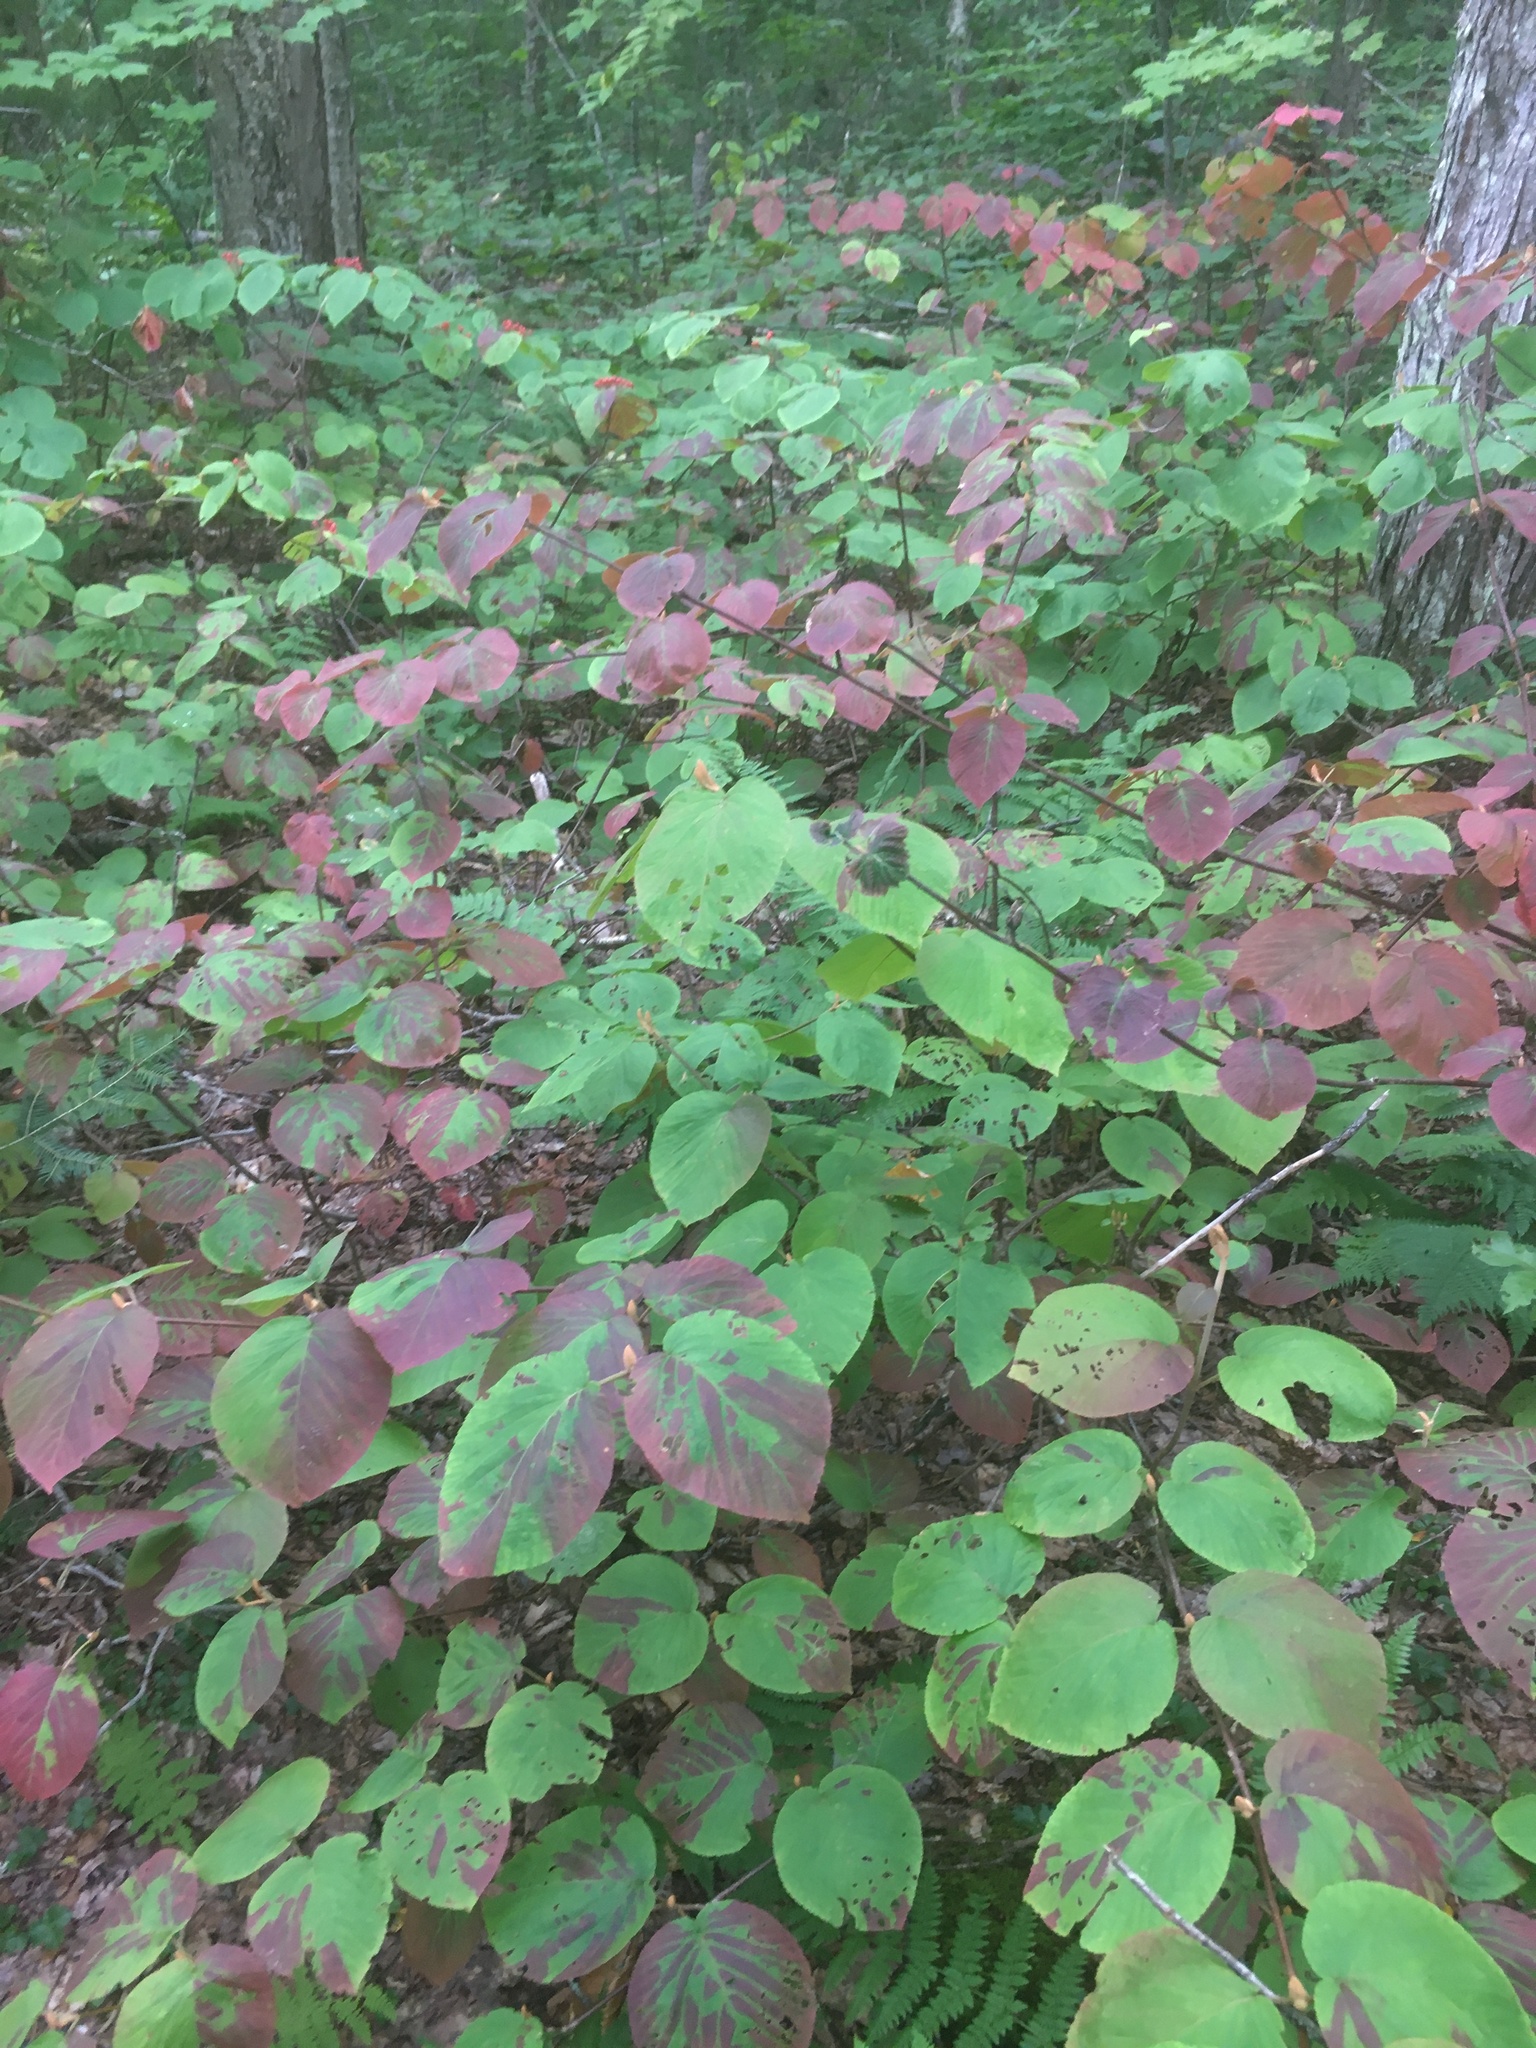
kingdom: Plantae
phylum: Tracheophyta
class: Magnoliopsida
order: Dipsacales
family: Viburnaceae
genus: Viburnum
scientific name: Viburnum lantanoides
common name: Hobblebush
